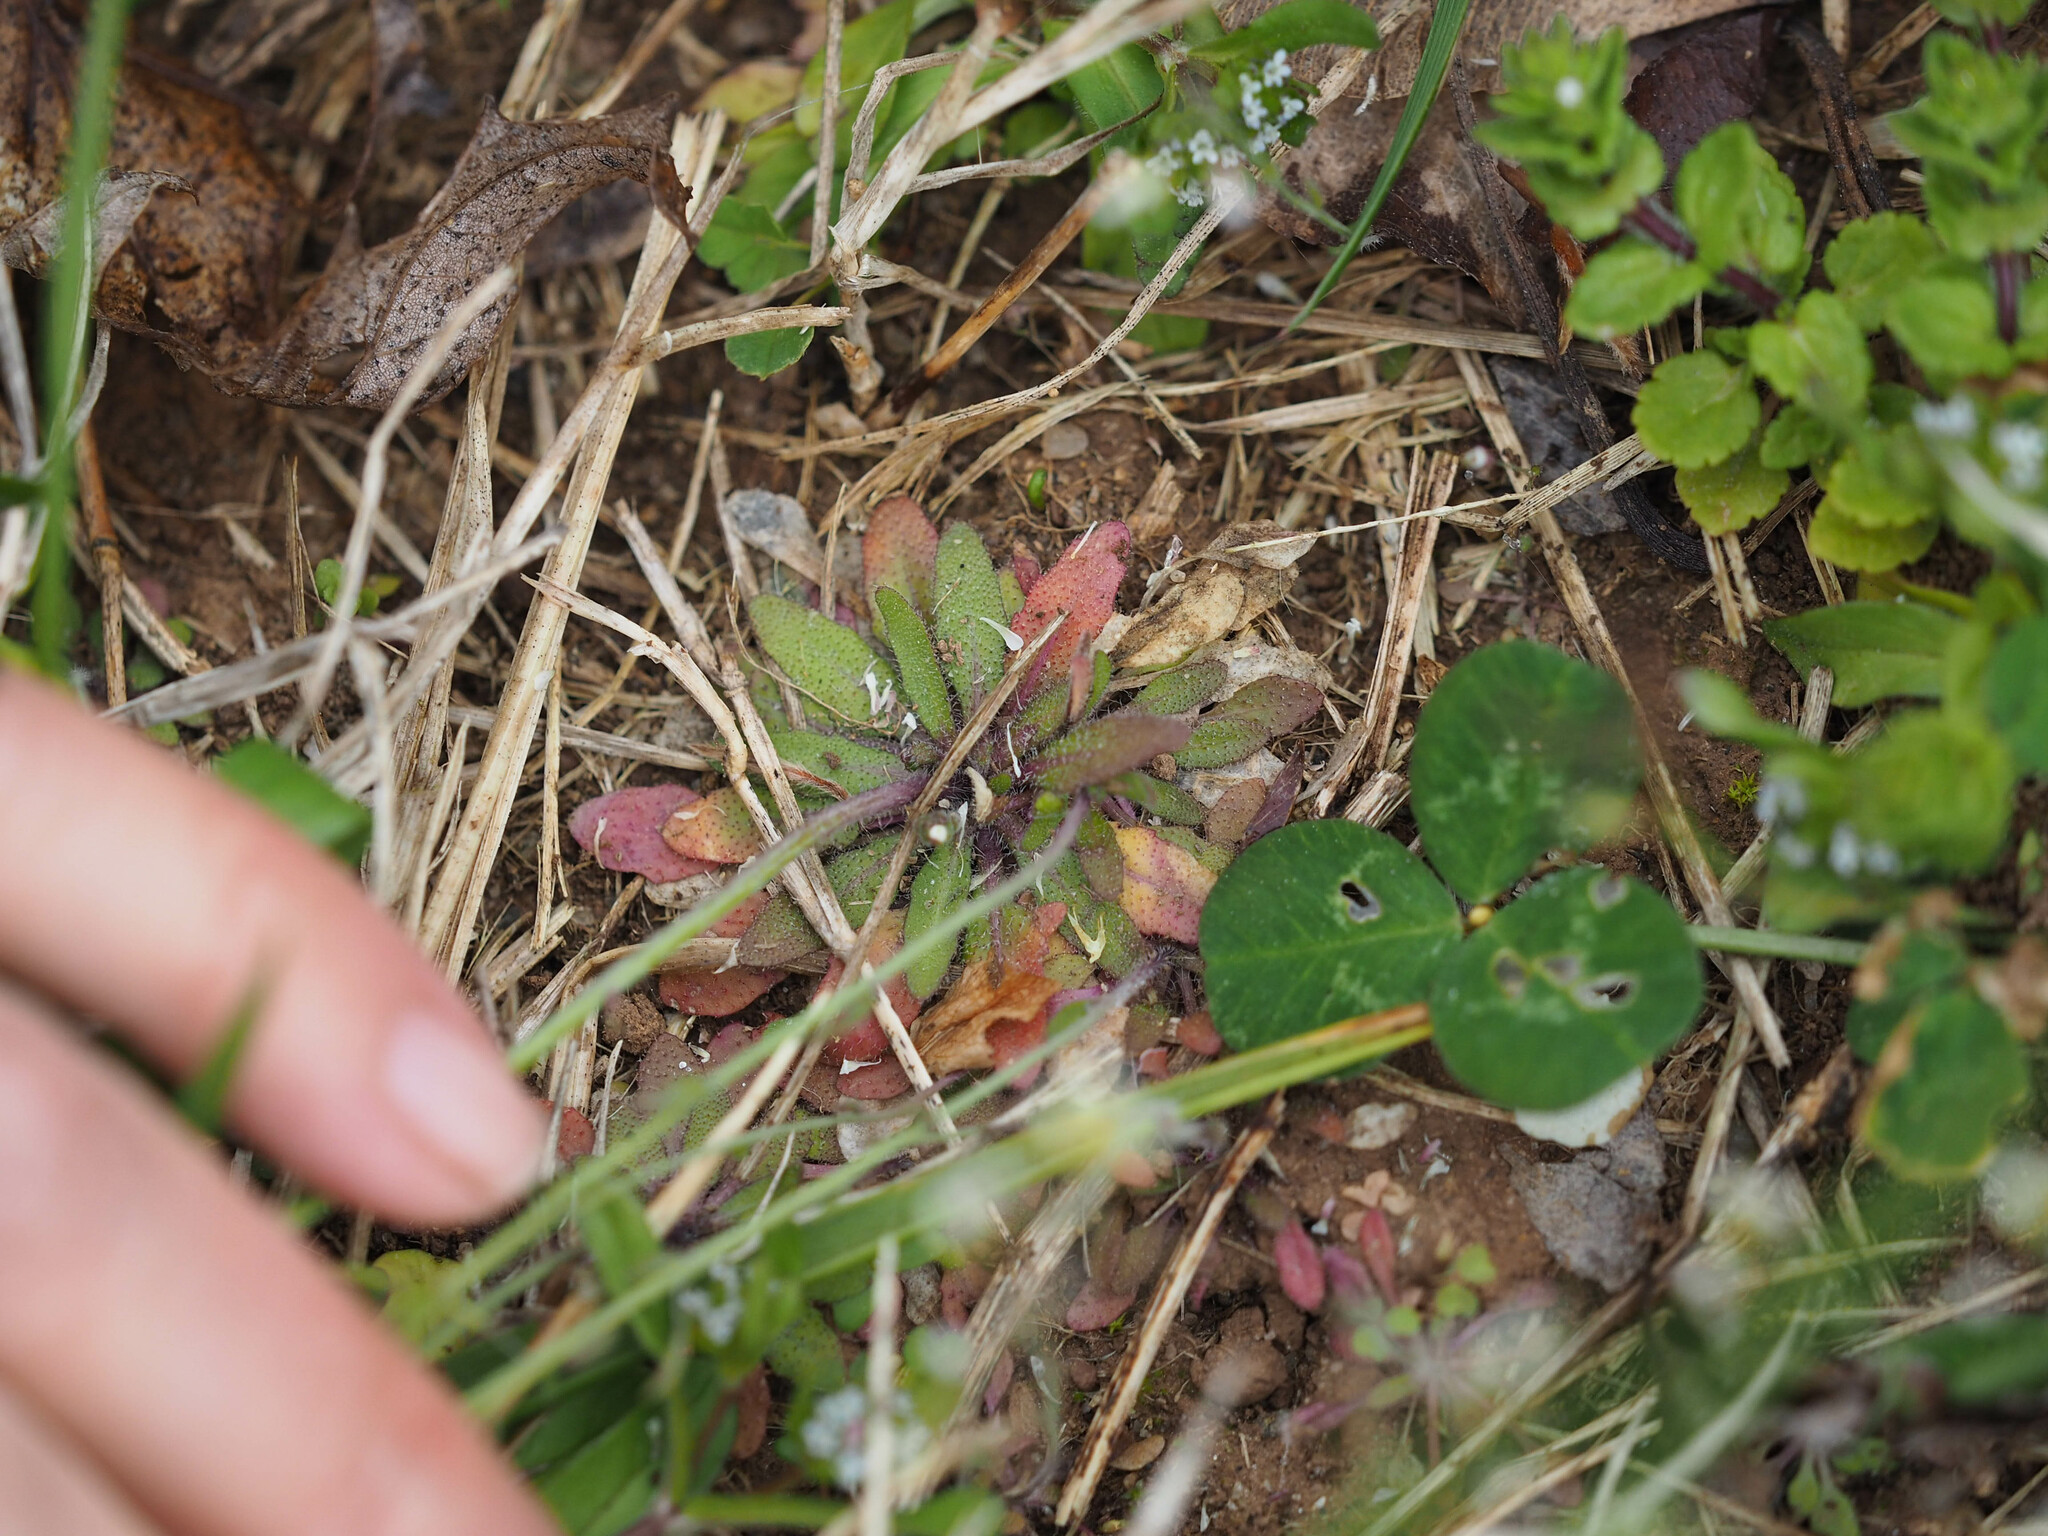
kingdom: Plantae
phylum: Tracheophyta
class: Magnoliopsida
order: Brassicales
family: Brassicaceae
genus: Arabidopsis
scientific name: Arabidopsis thaliana
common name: Thale cress
